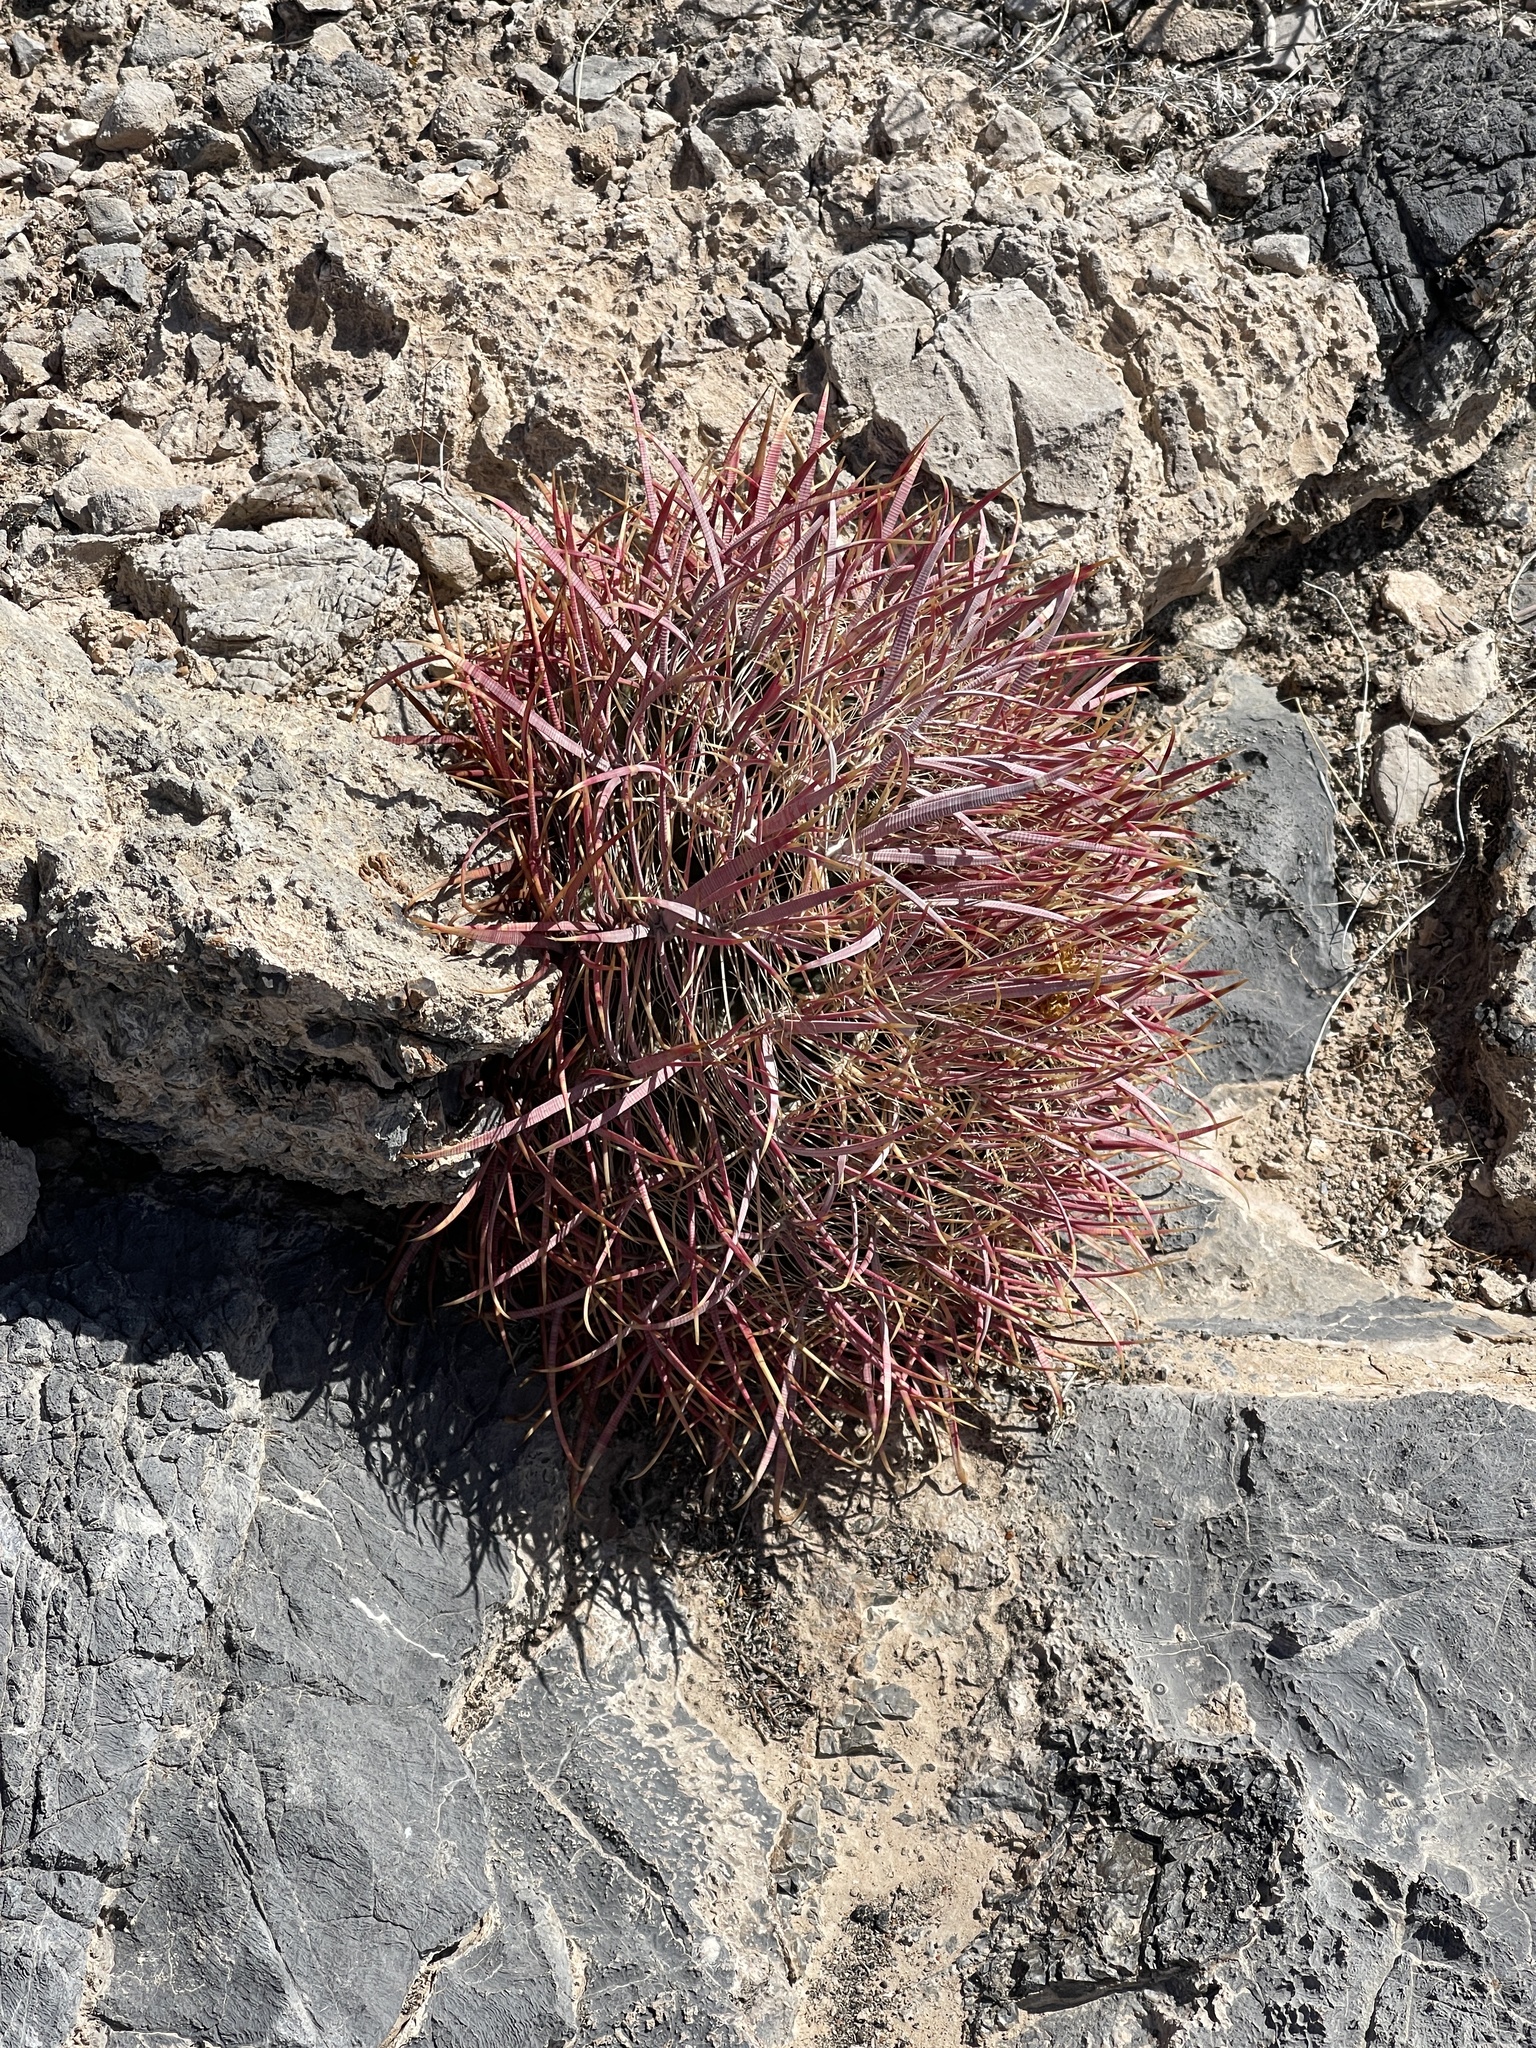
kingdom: Plantae
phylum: Tracheophyta
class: Magnoliopsida
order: Caryophyllales
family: Cactaceae
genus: Ferocactus
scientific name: Ferocactus cylindraceus
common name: California barrel cactus
